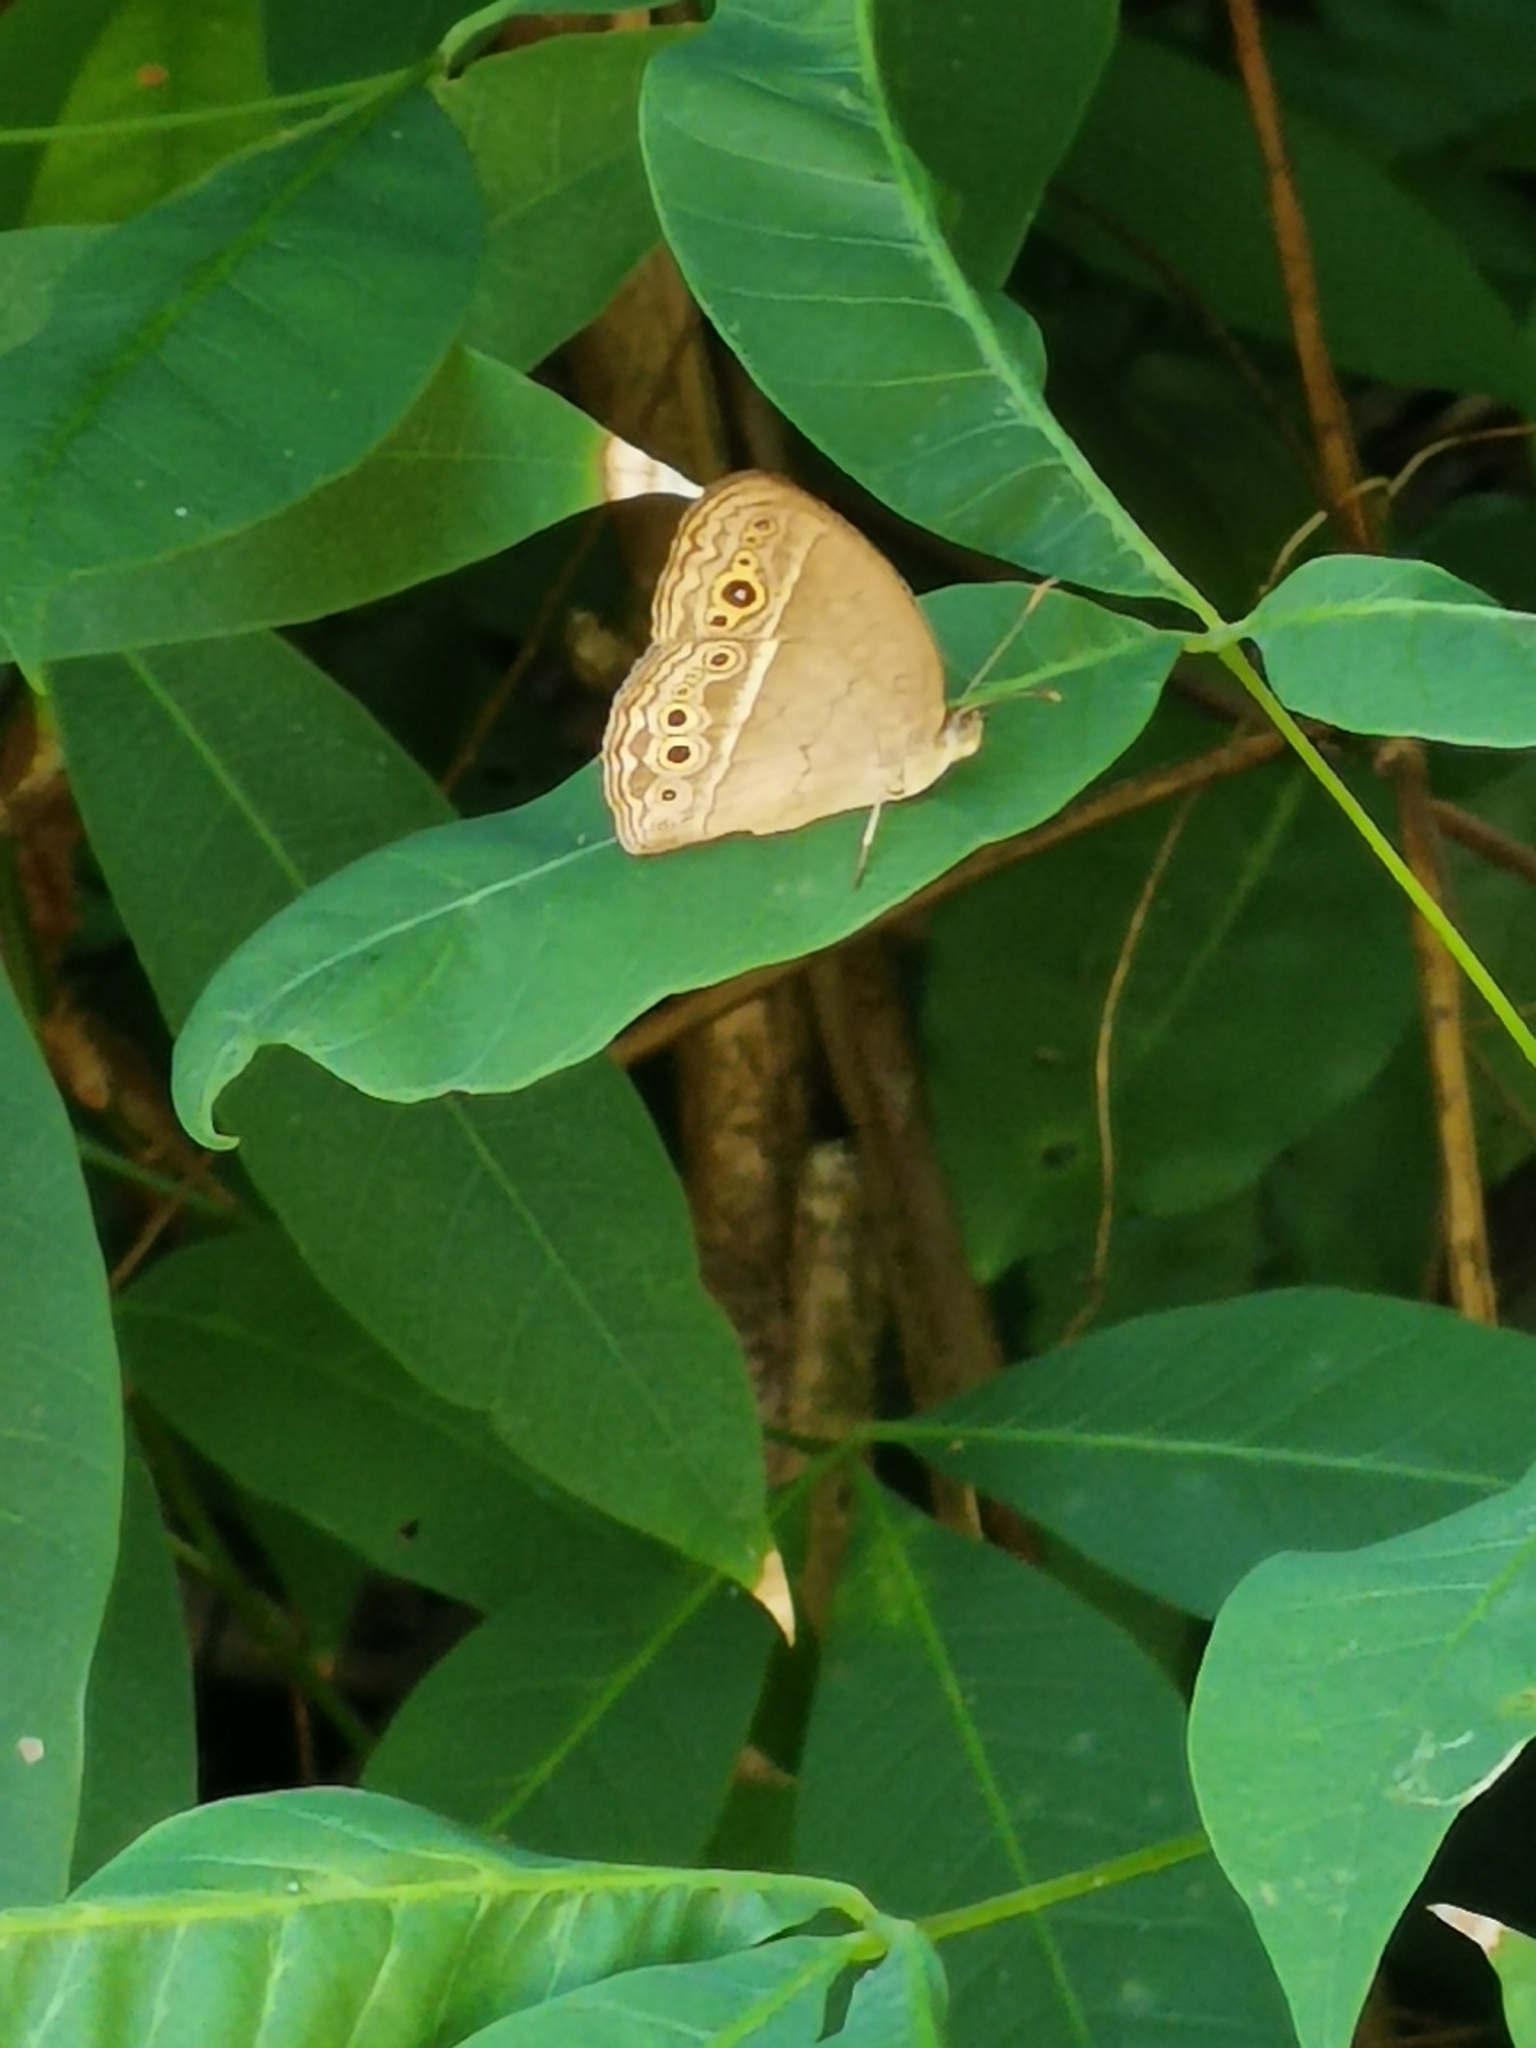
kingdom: Animalia
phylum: Arthropoda
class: Insecta
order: Lepidoptera
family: Nymphalidae
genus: Mycalesis
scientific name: Mycalesis perseoides
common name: Burmese bushbrown
